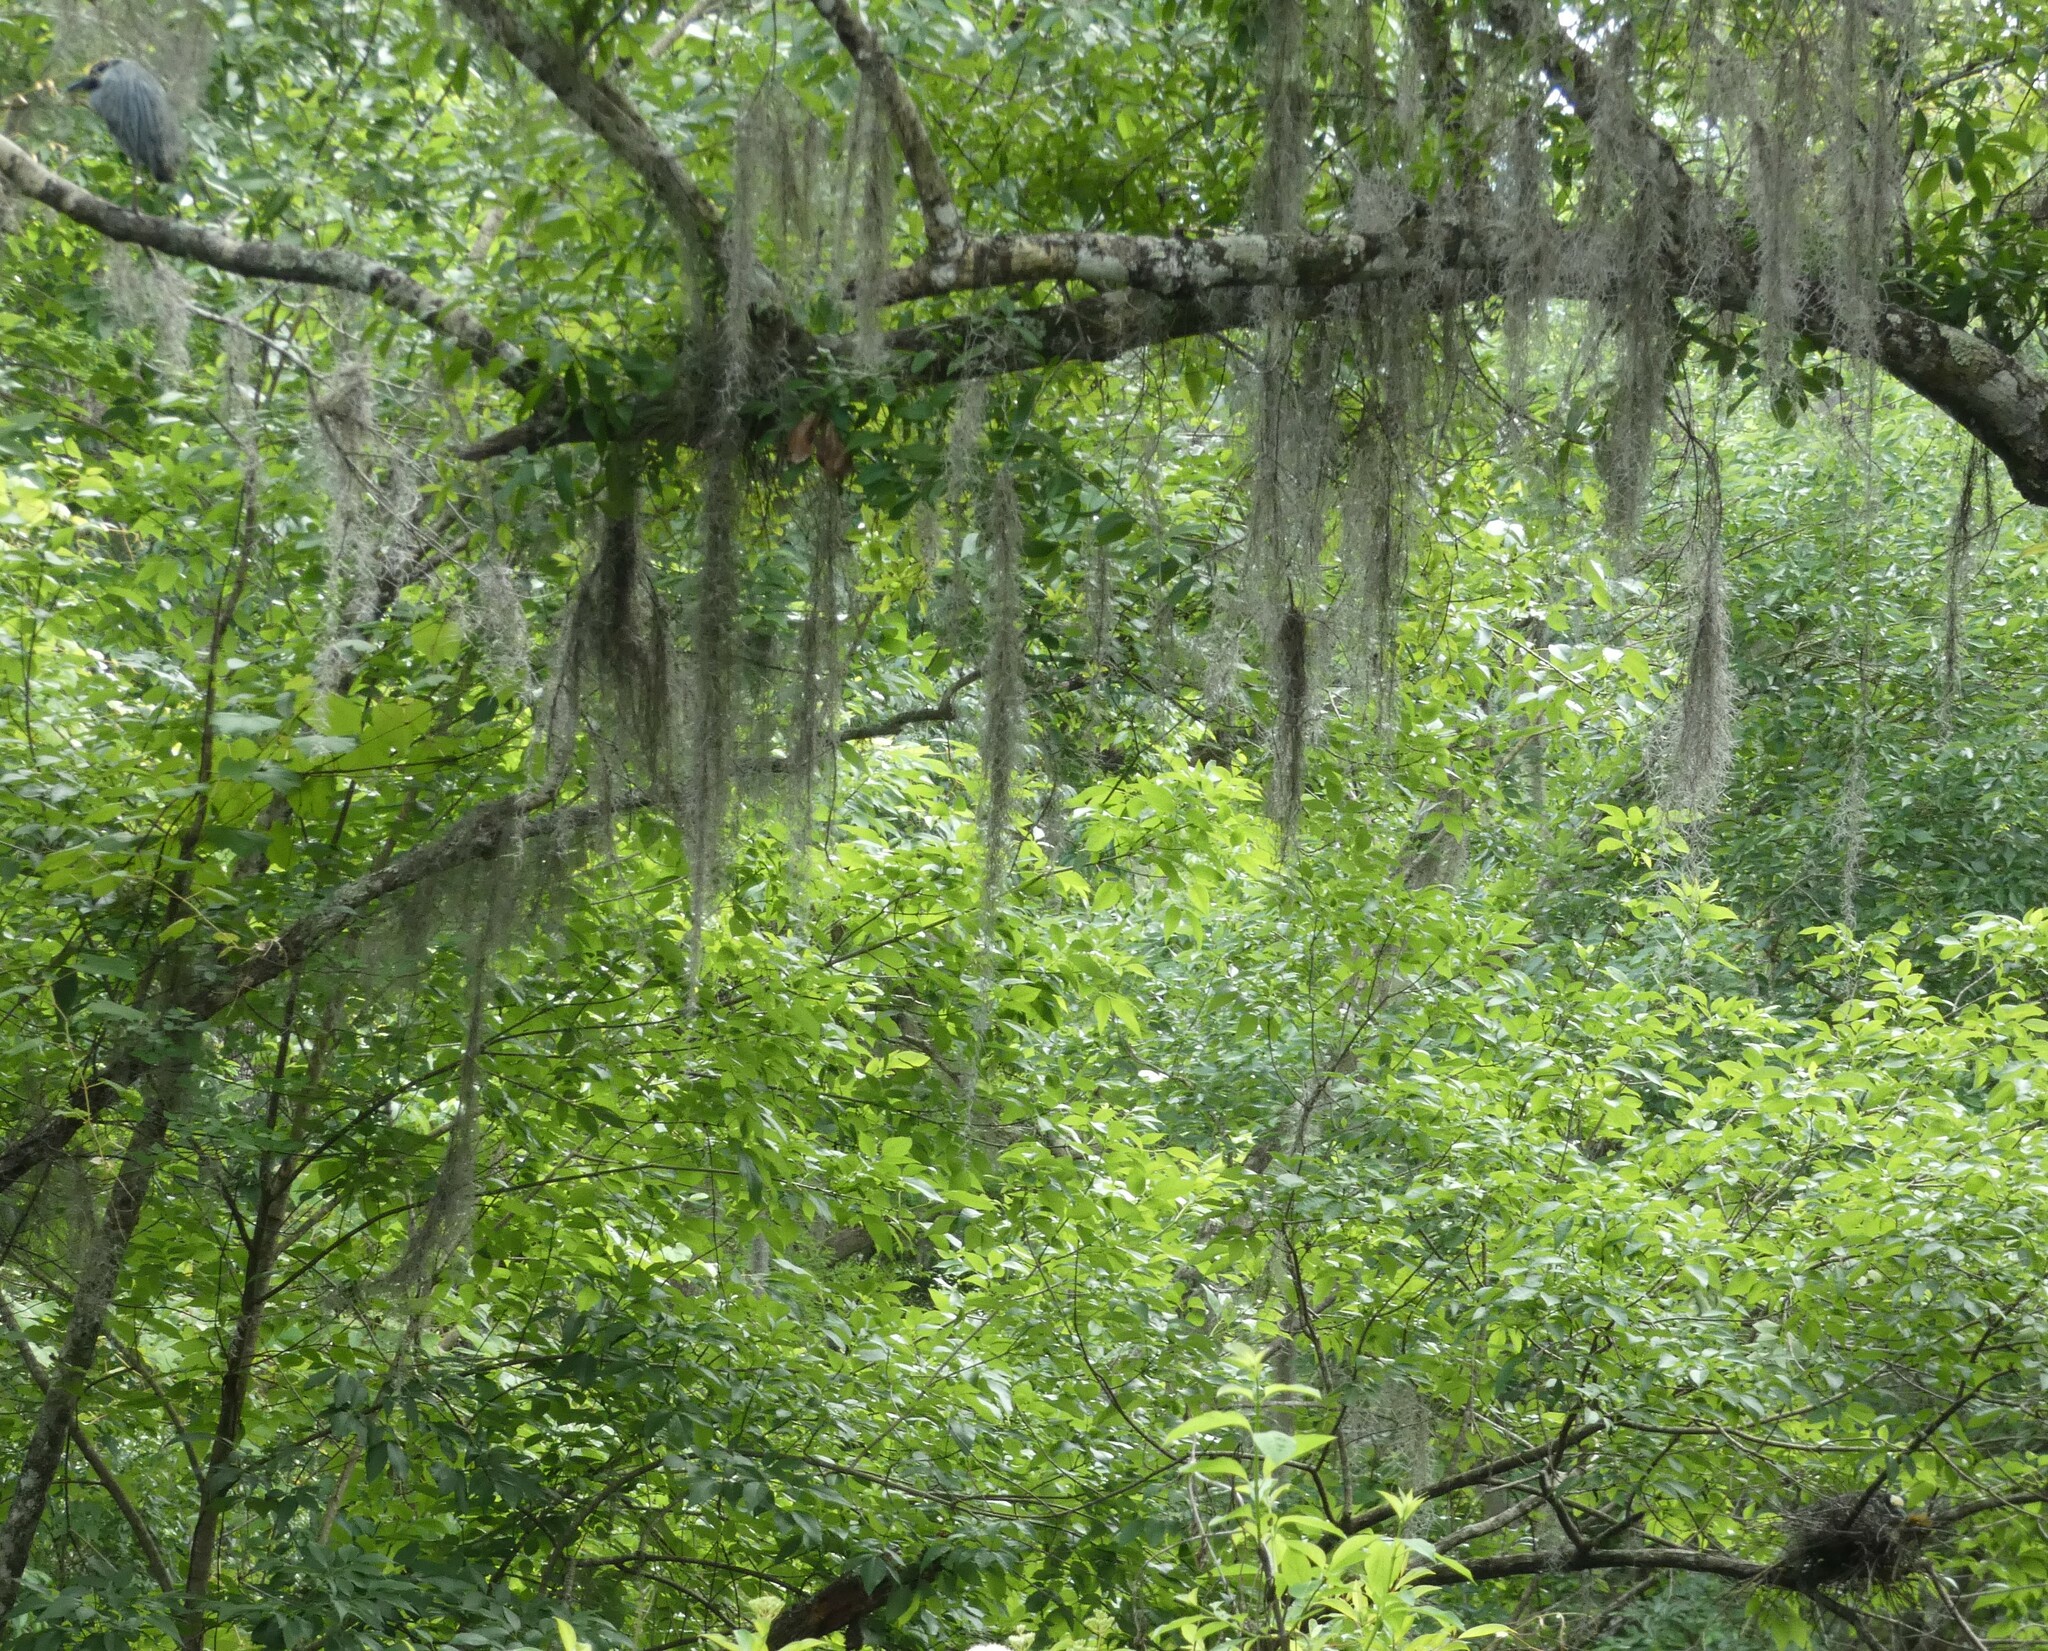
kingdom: Animalia
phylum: Chordata
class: Aves
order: Pelecaniformes
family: Ardeidae
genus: Nyctanassa
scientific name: Nyctanassa violacea
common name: Yellow-crowned night heron
